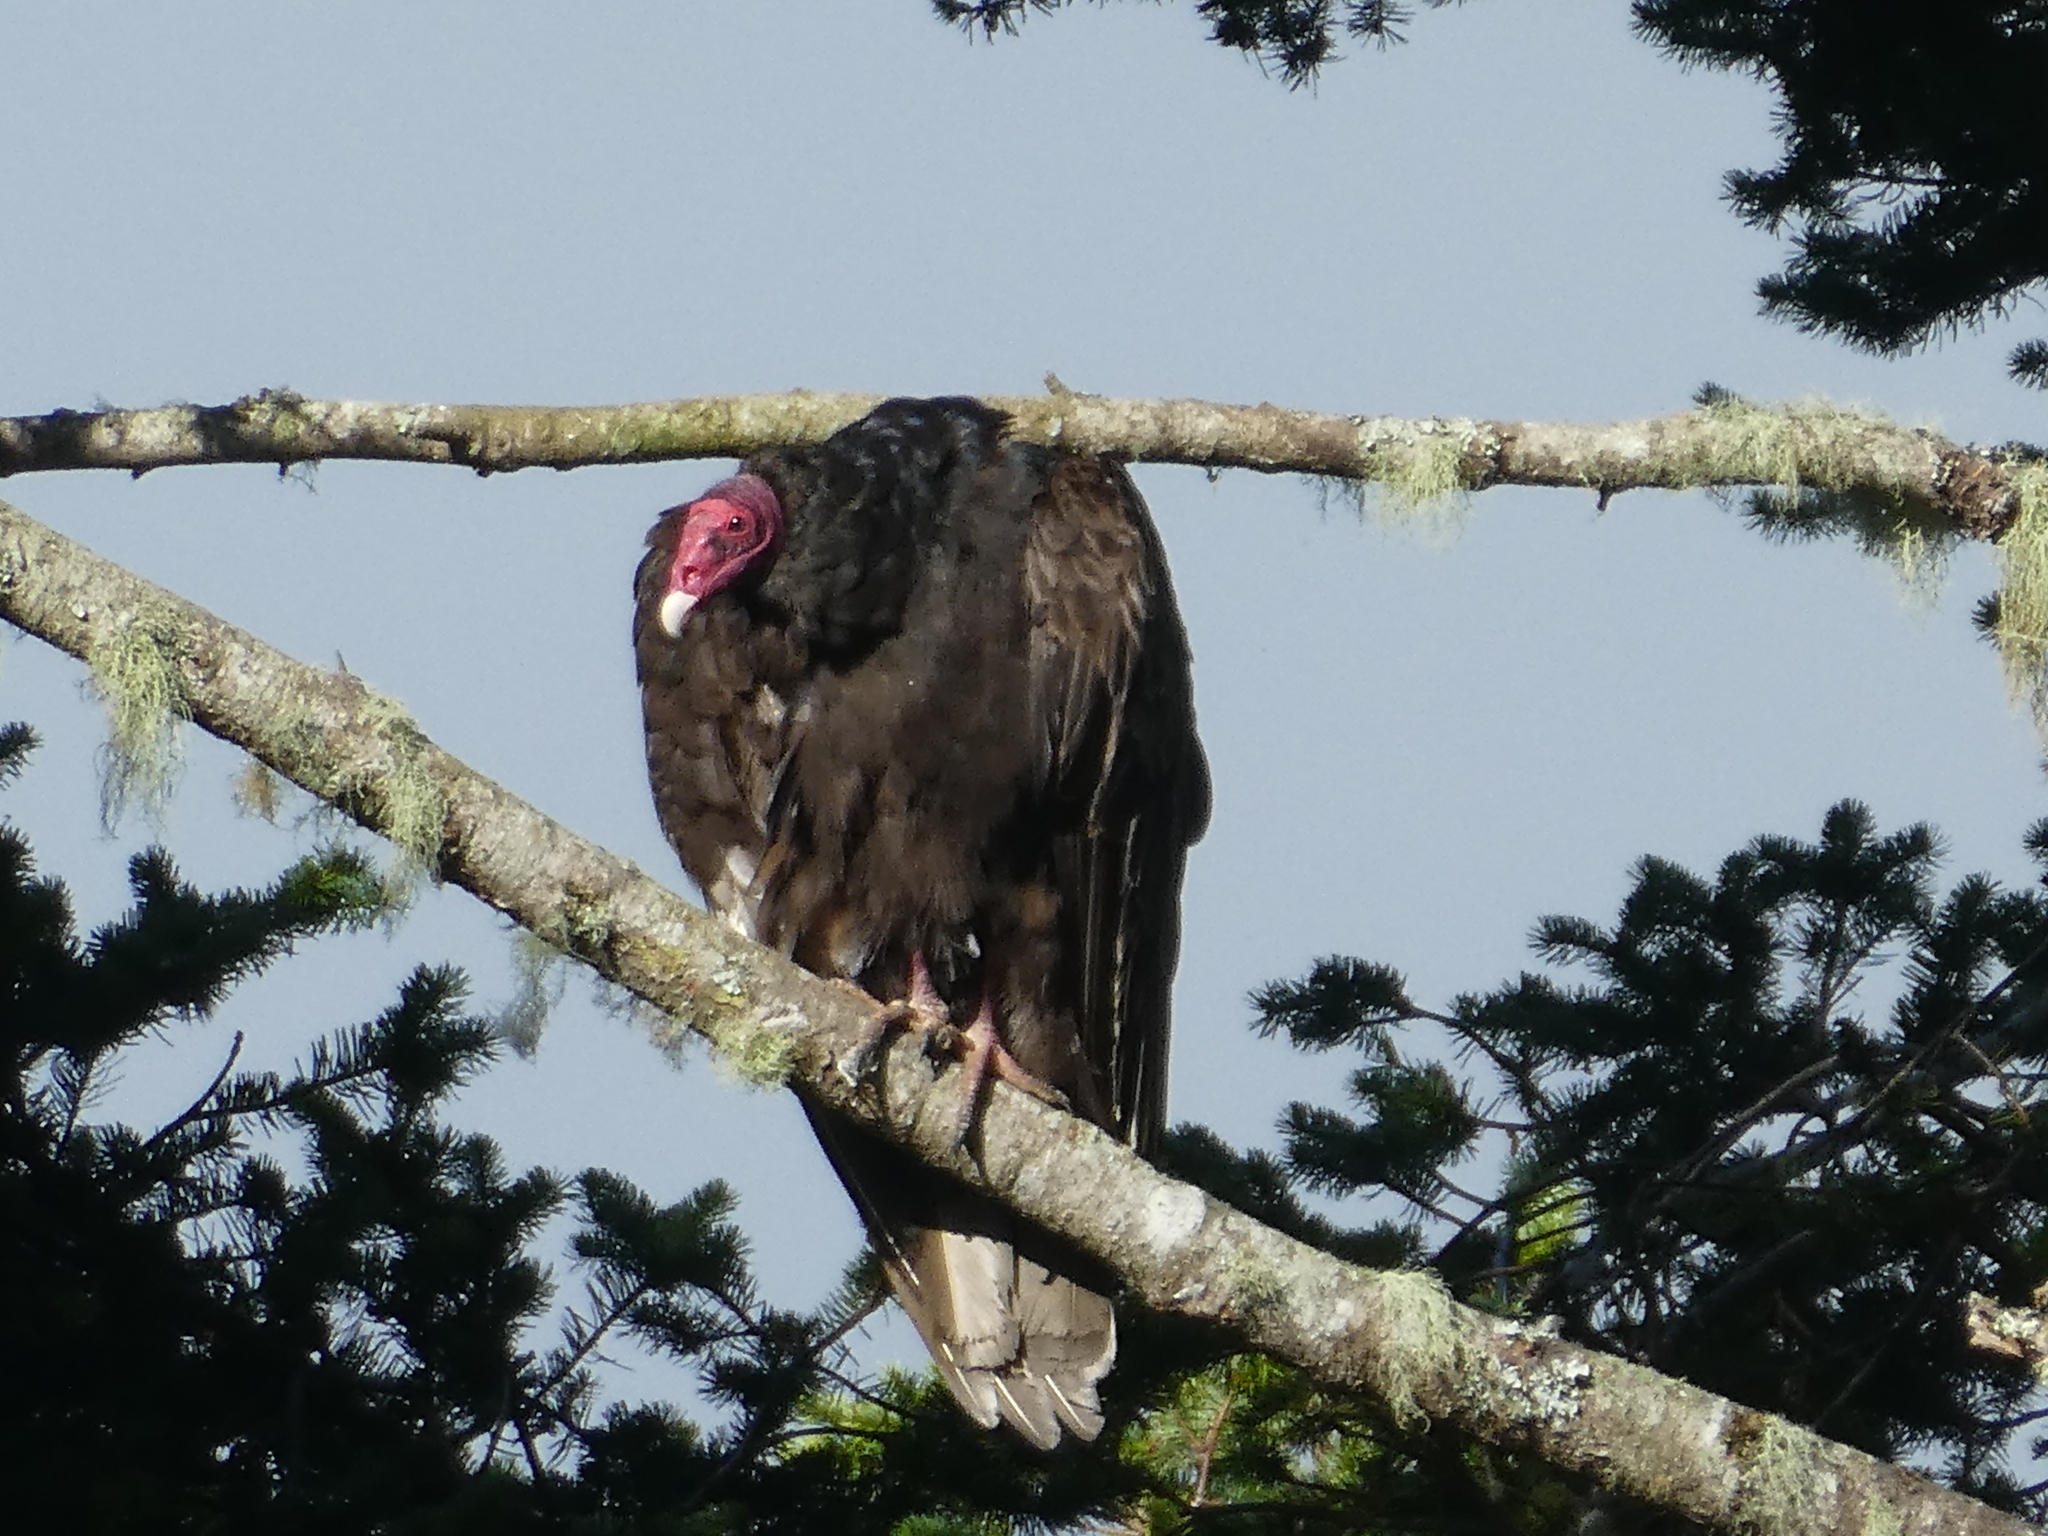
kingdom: Animalia
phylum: Chordata
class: Aves
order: Accipitriformes
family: Cathartidae
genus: Cathartes
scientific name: Cathartes aura
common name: Turkey vulture
